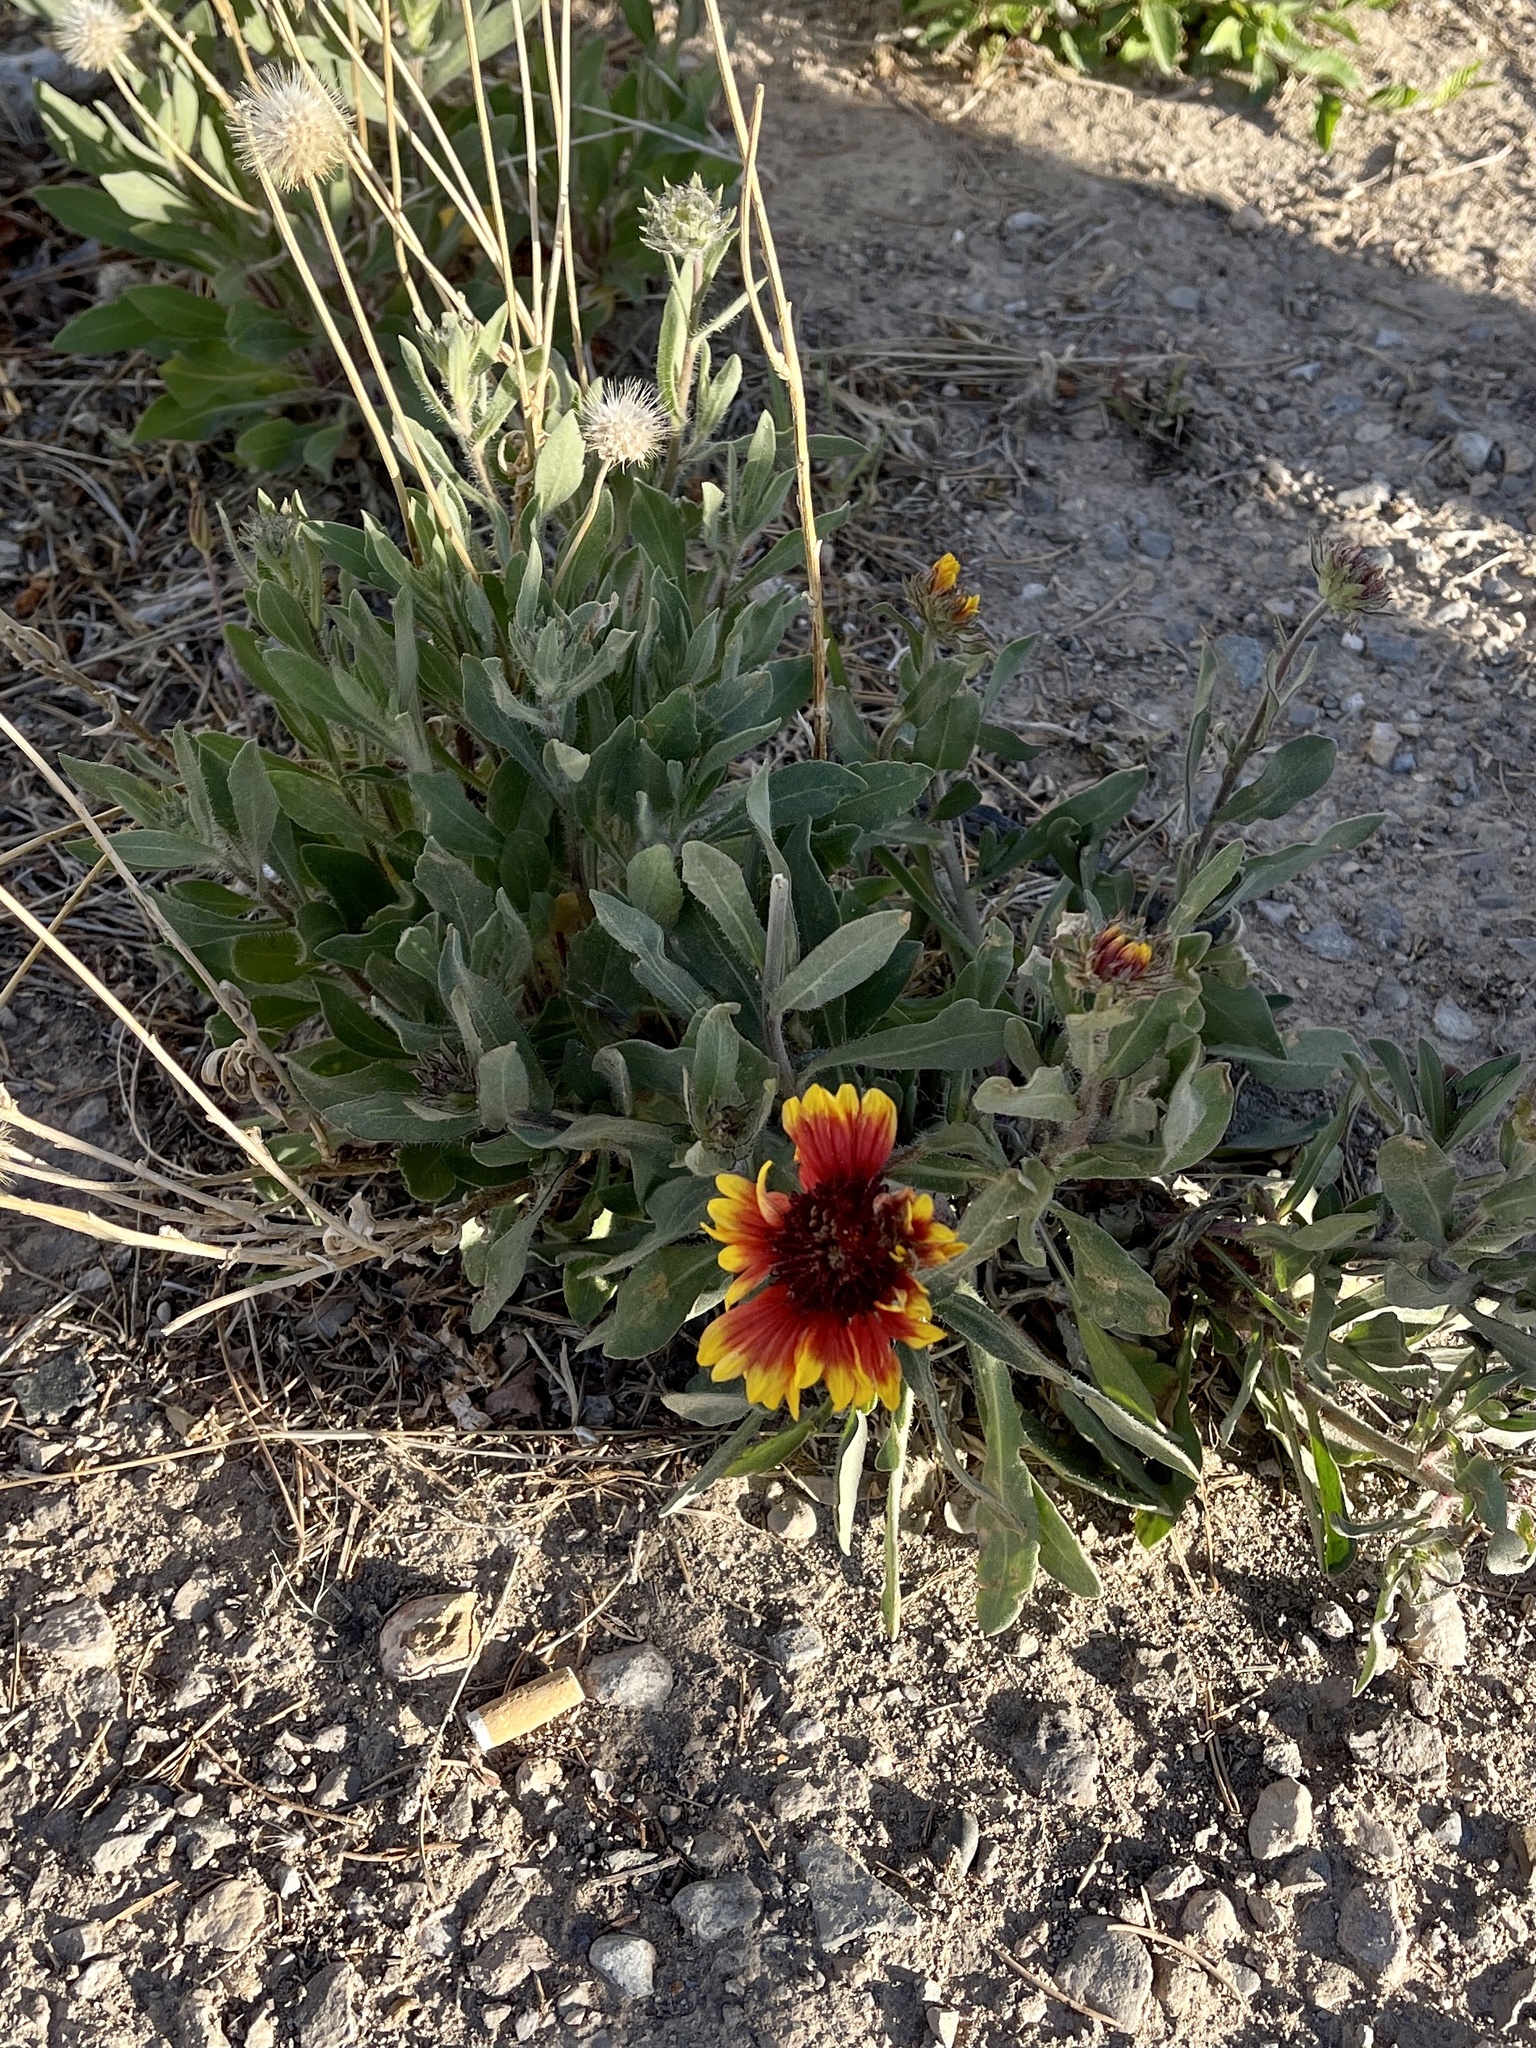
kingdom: Plantae
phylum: Tracheophyta
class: Magnoliopsida
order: Asterales
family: Asteraceae
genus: Gaillardia
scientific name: Gaillardia pulchella
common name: Firewheel
